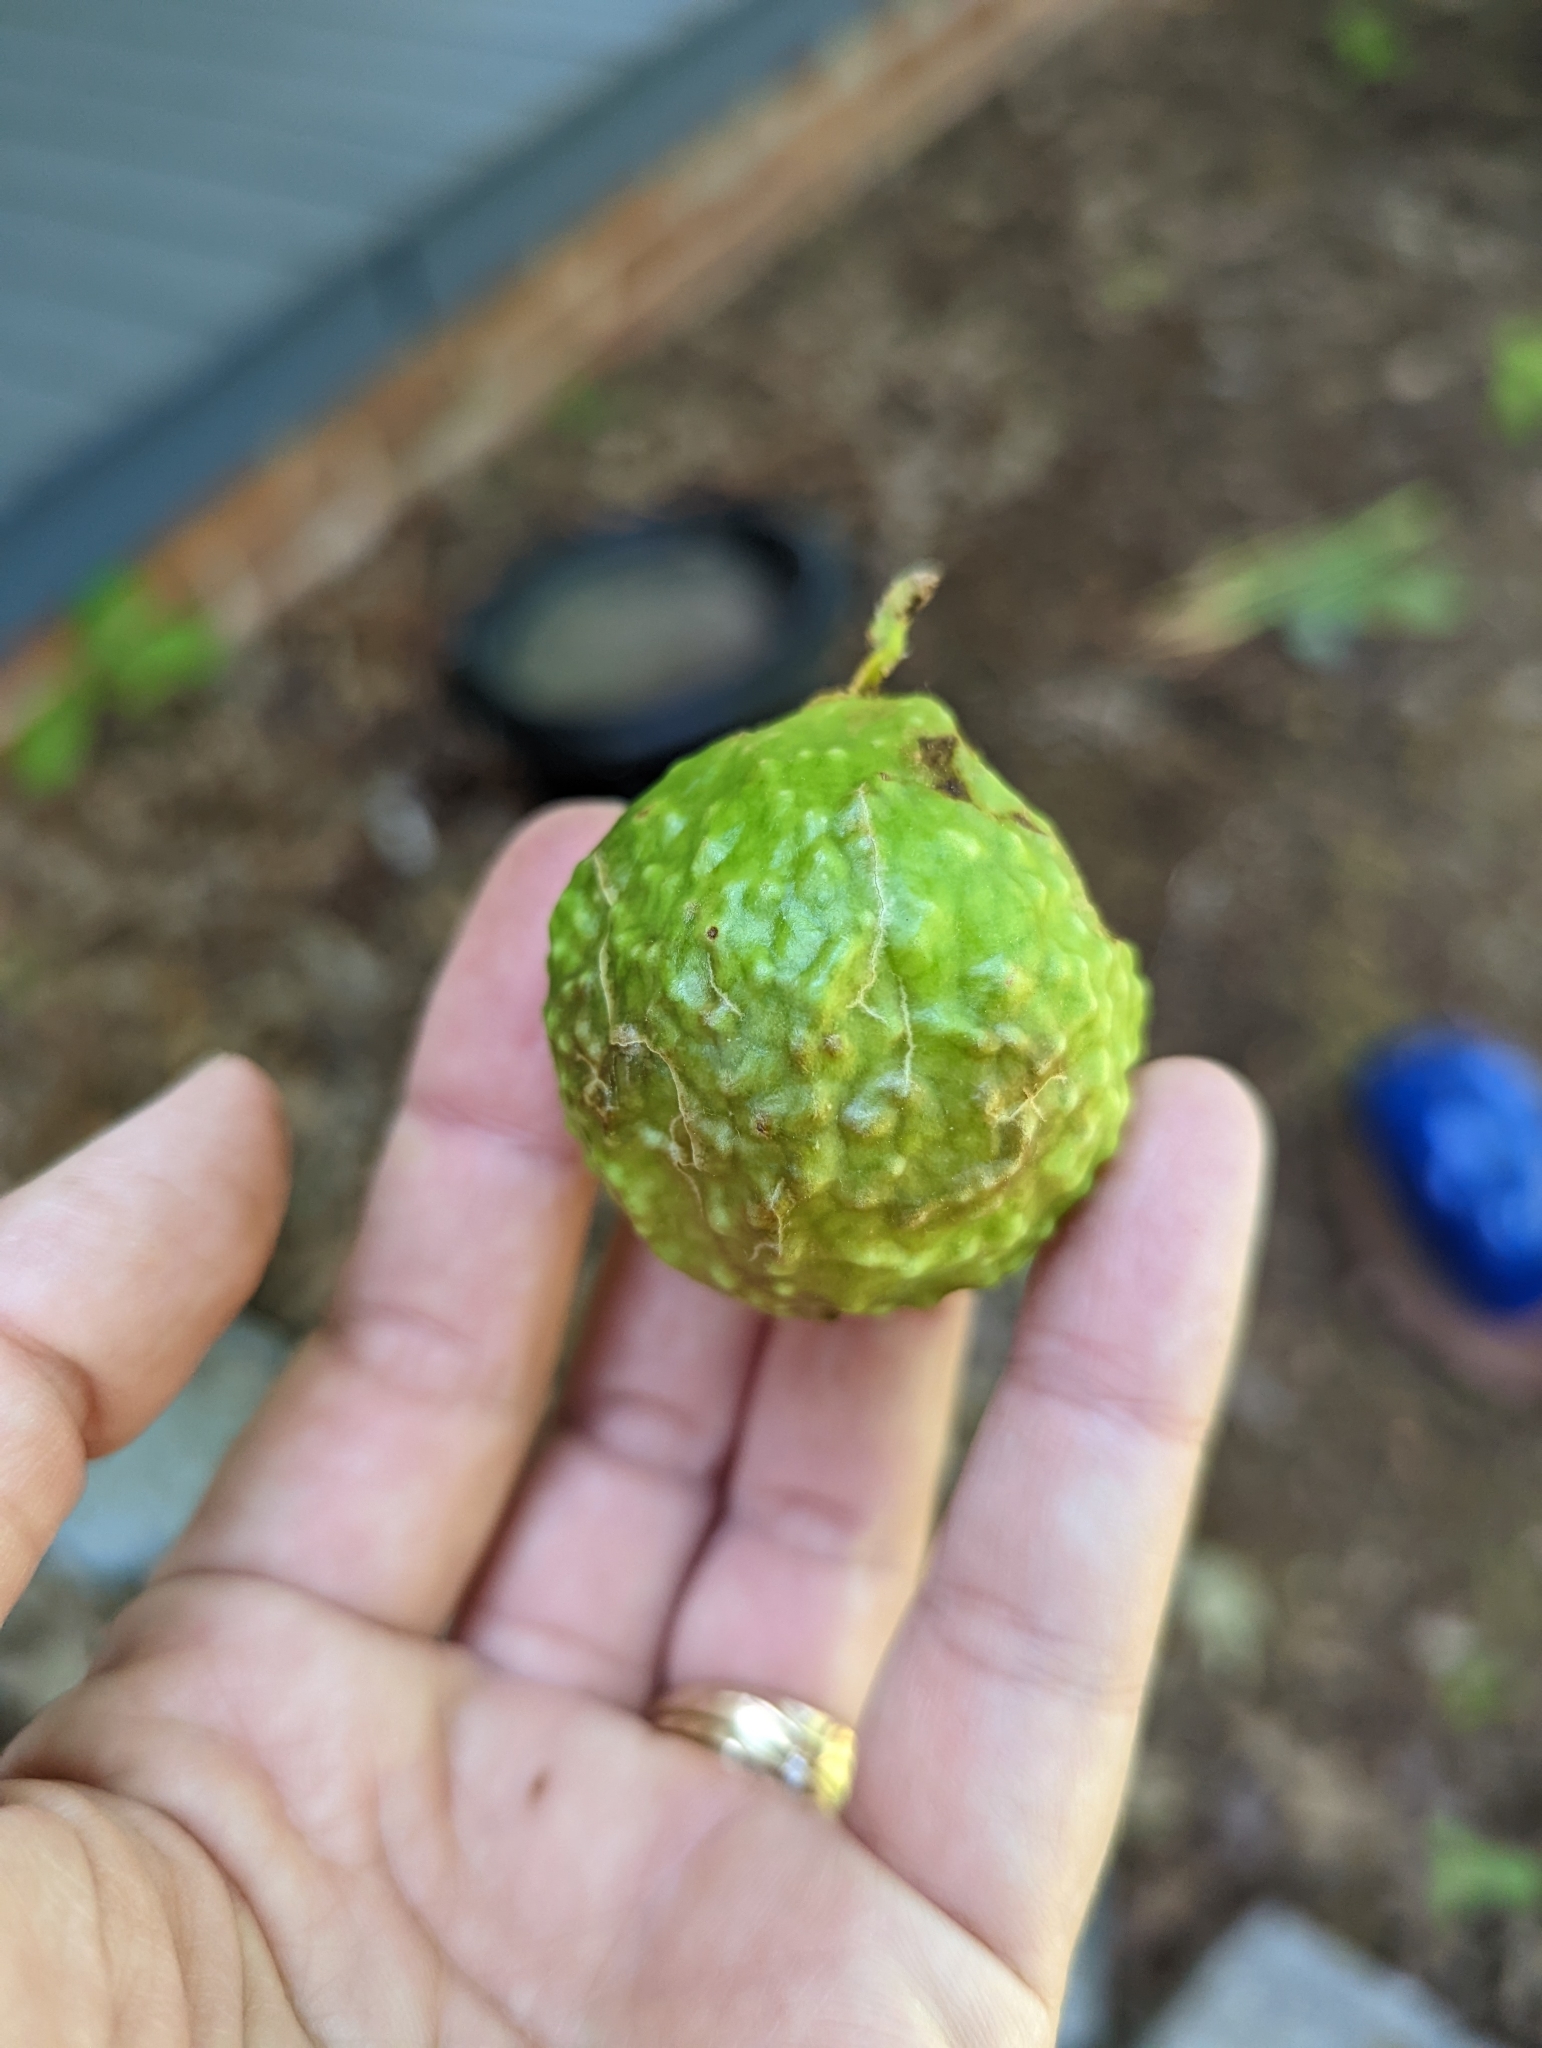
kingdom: Animalia
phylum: Arthropoda
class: Insecta
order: Hymenoptera
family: Cynipidae
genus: Amphibolips
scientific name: Amphibolips
